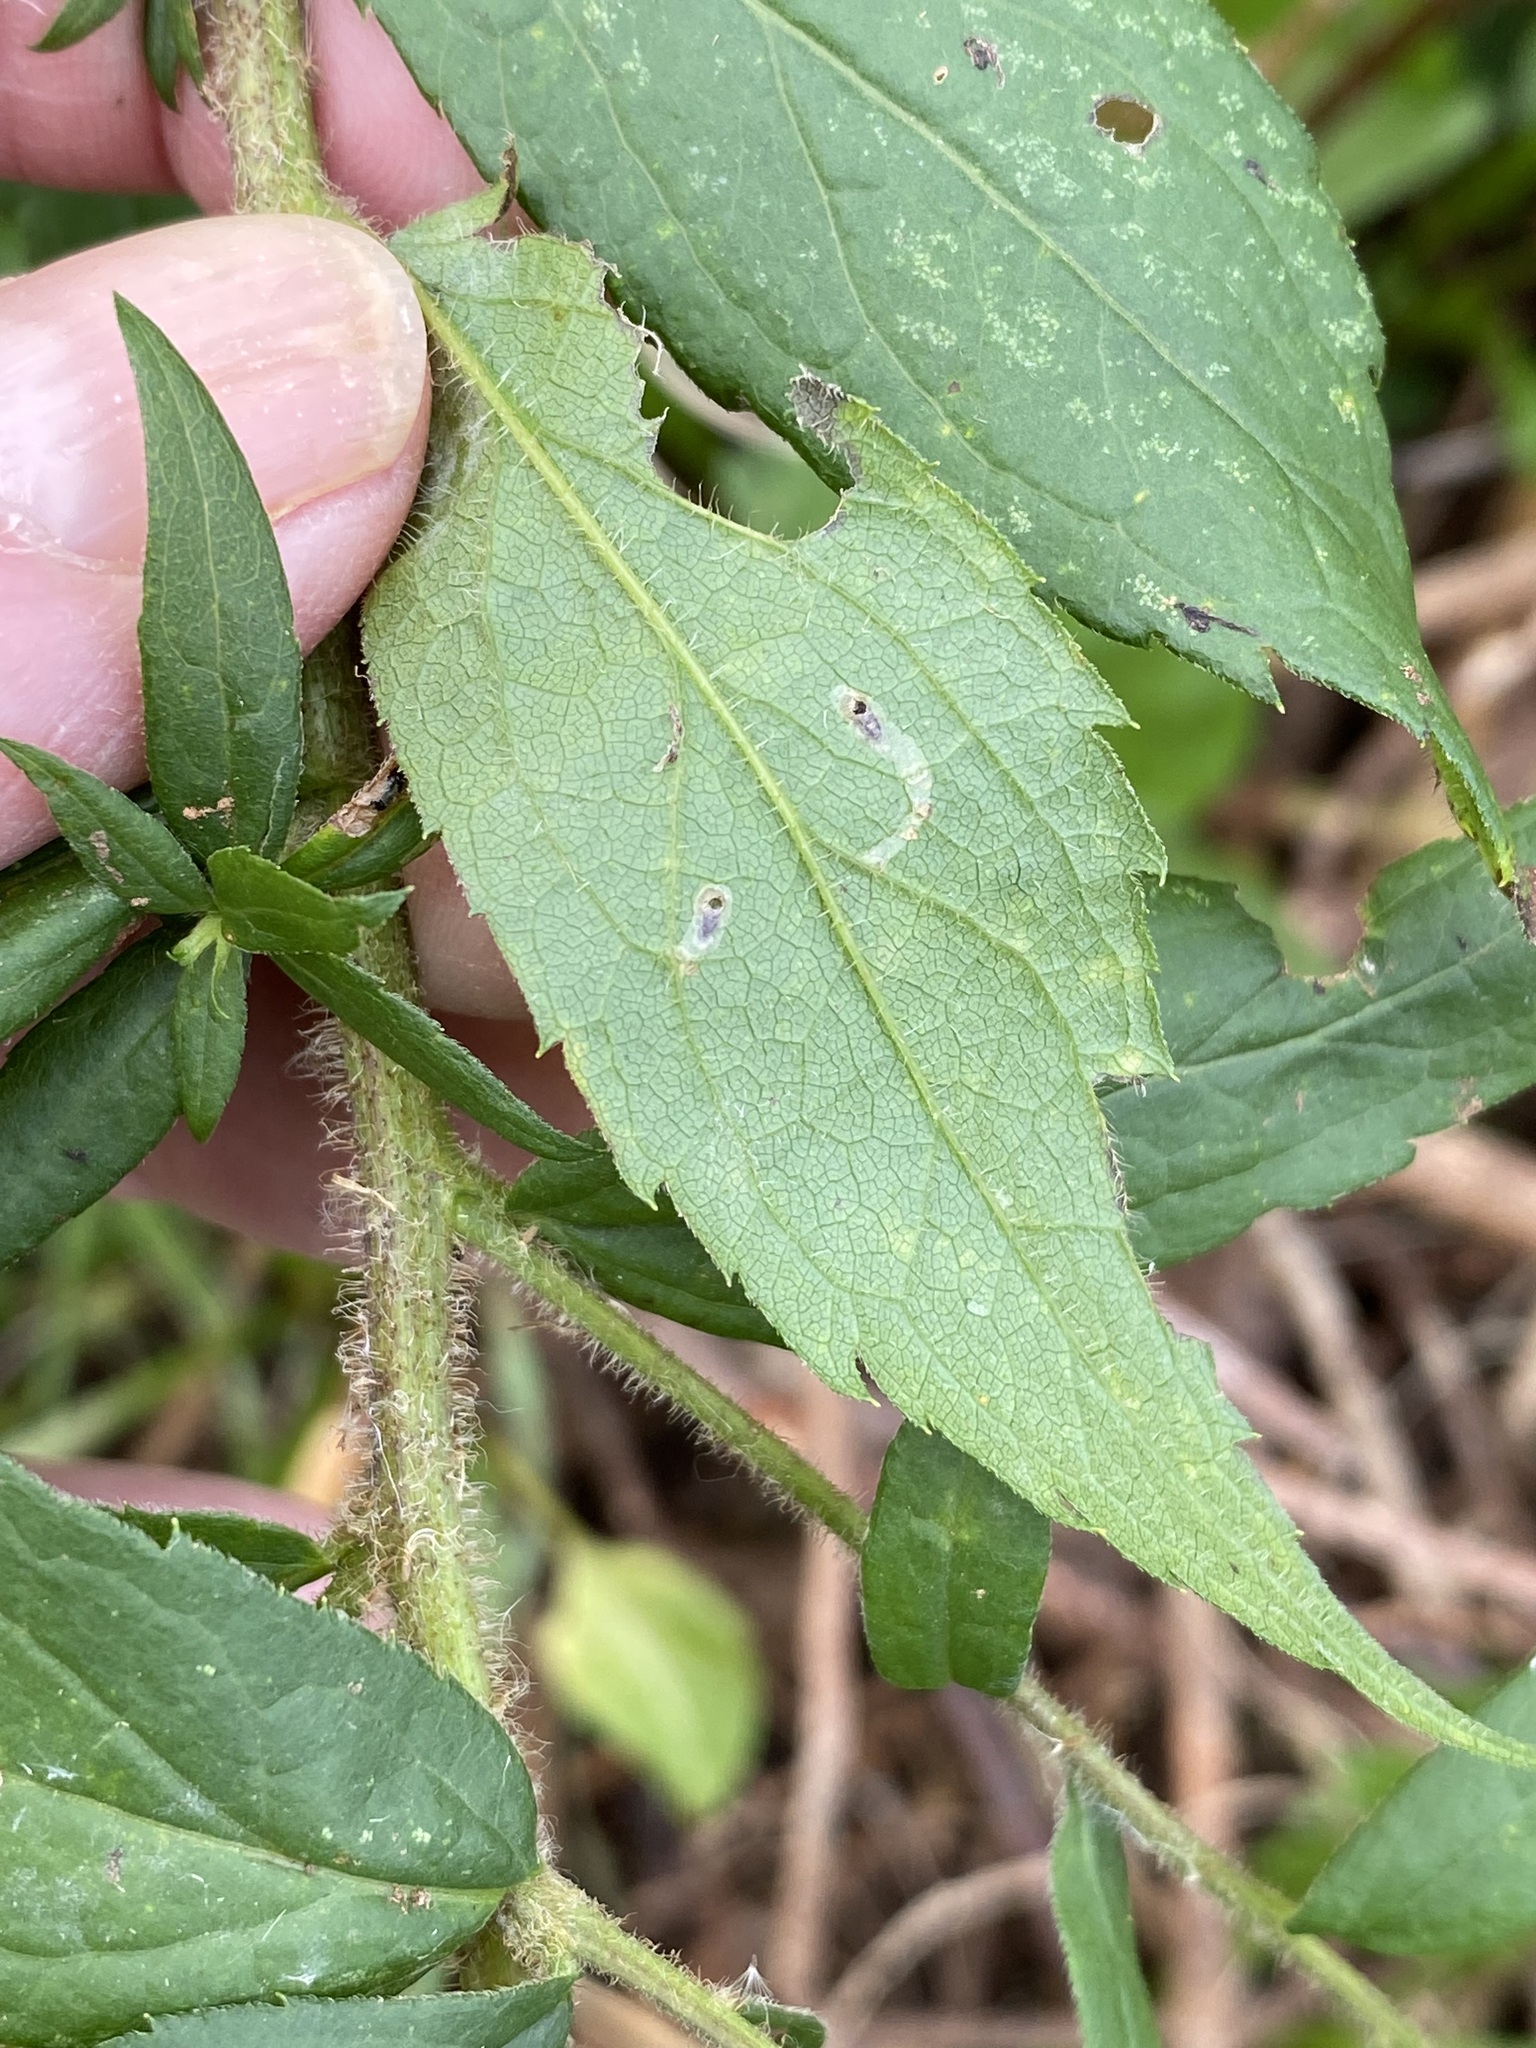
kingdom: Animalia
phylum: Arthropoda
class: Insecta
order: Diptera
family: Agromyzidae
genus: Ophiomyia
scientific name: Ophiomyia maura
